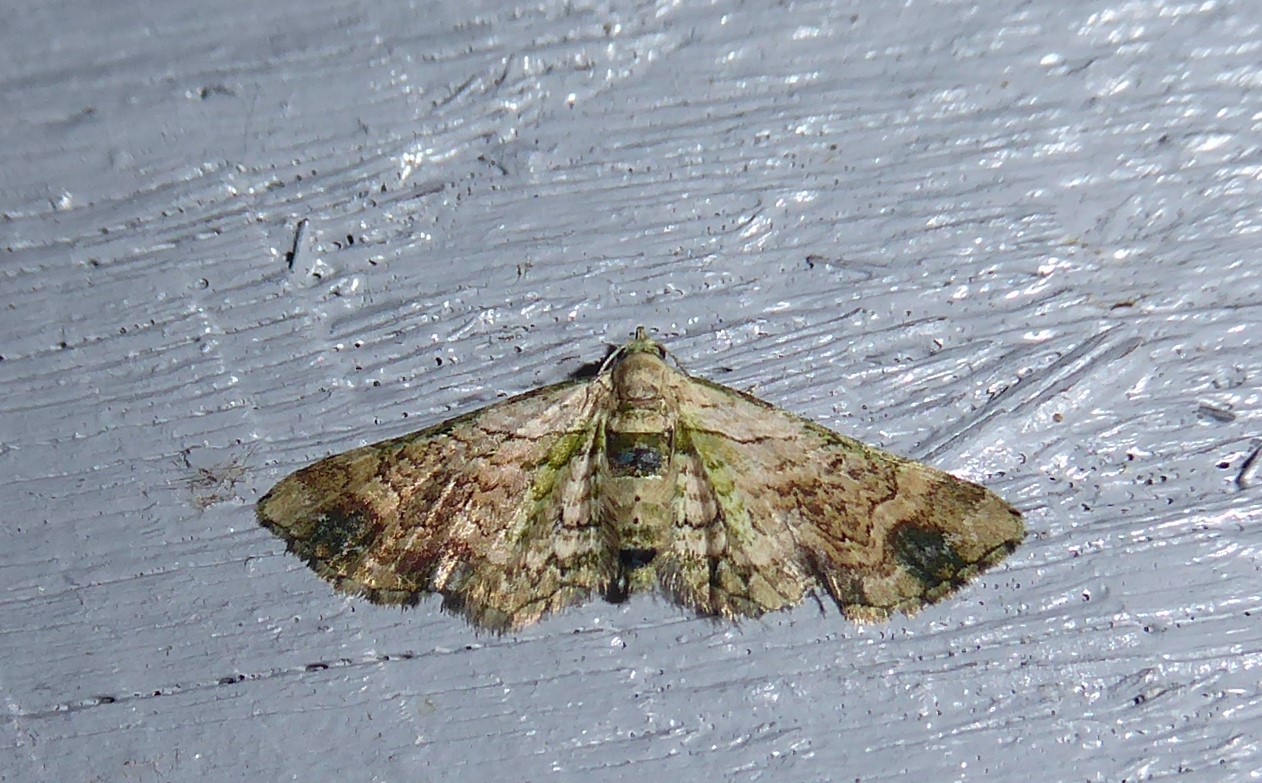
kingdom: Animalia
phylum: Arthropoda
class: Insecta
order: Lepidoptera
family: Geometridae
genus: Chloroclystis
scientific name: Chloroclystis
